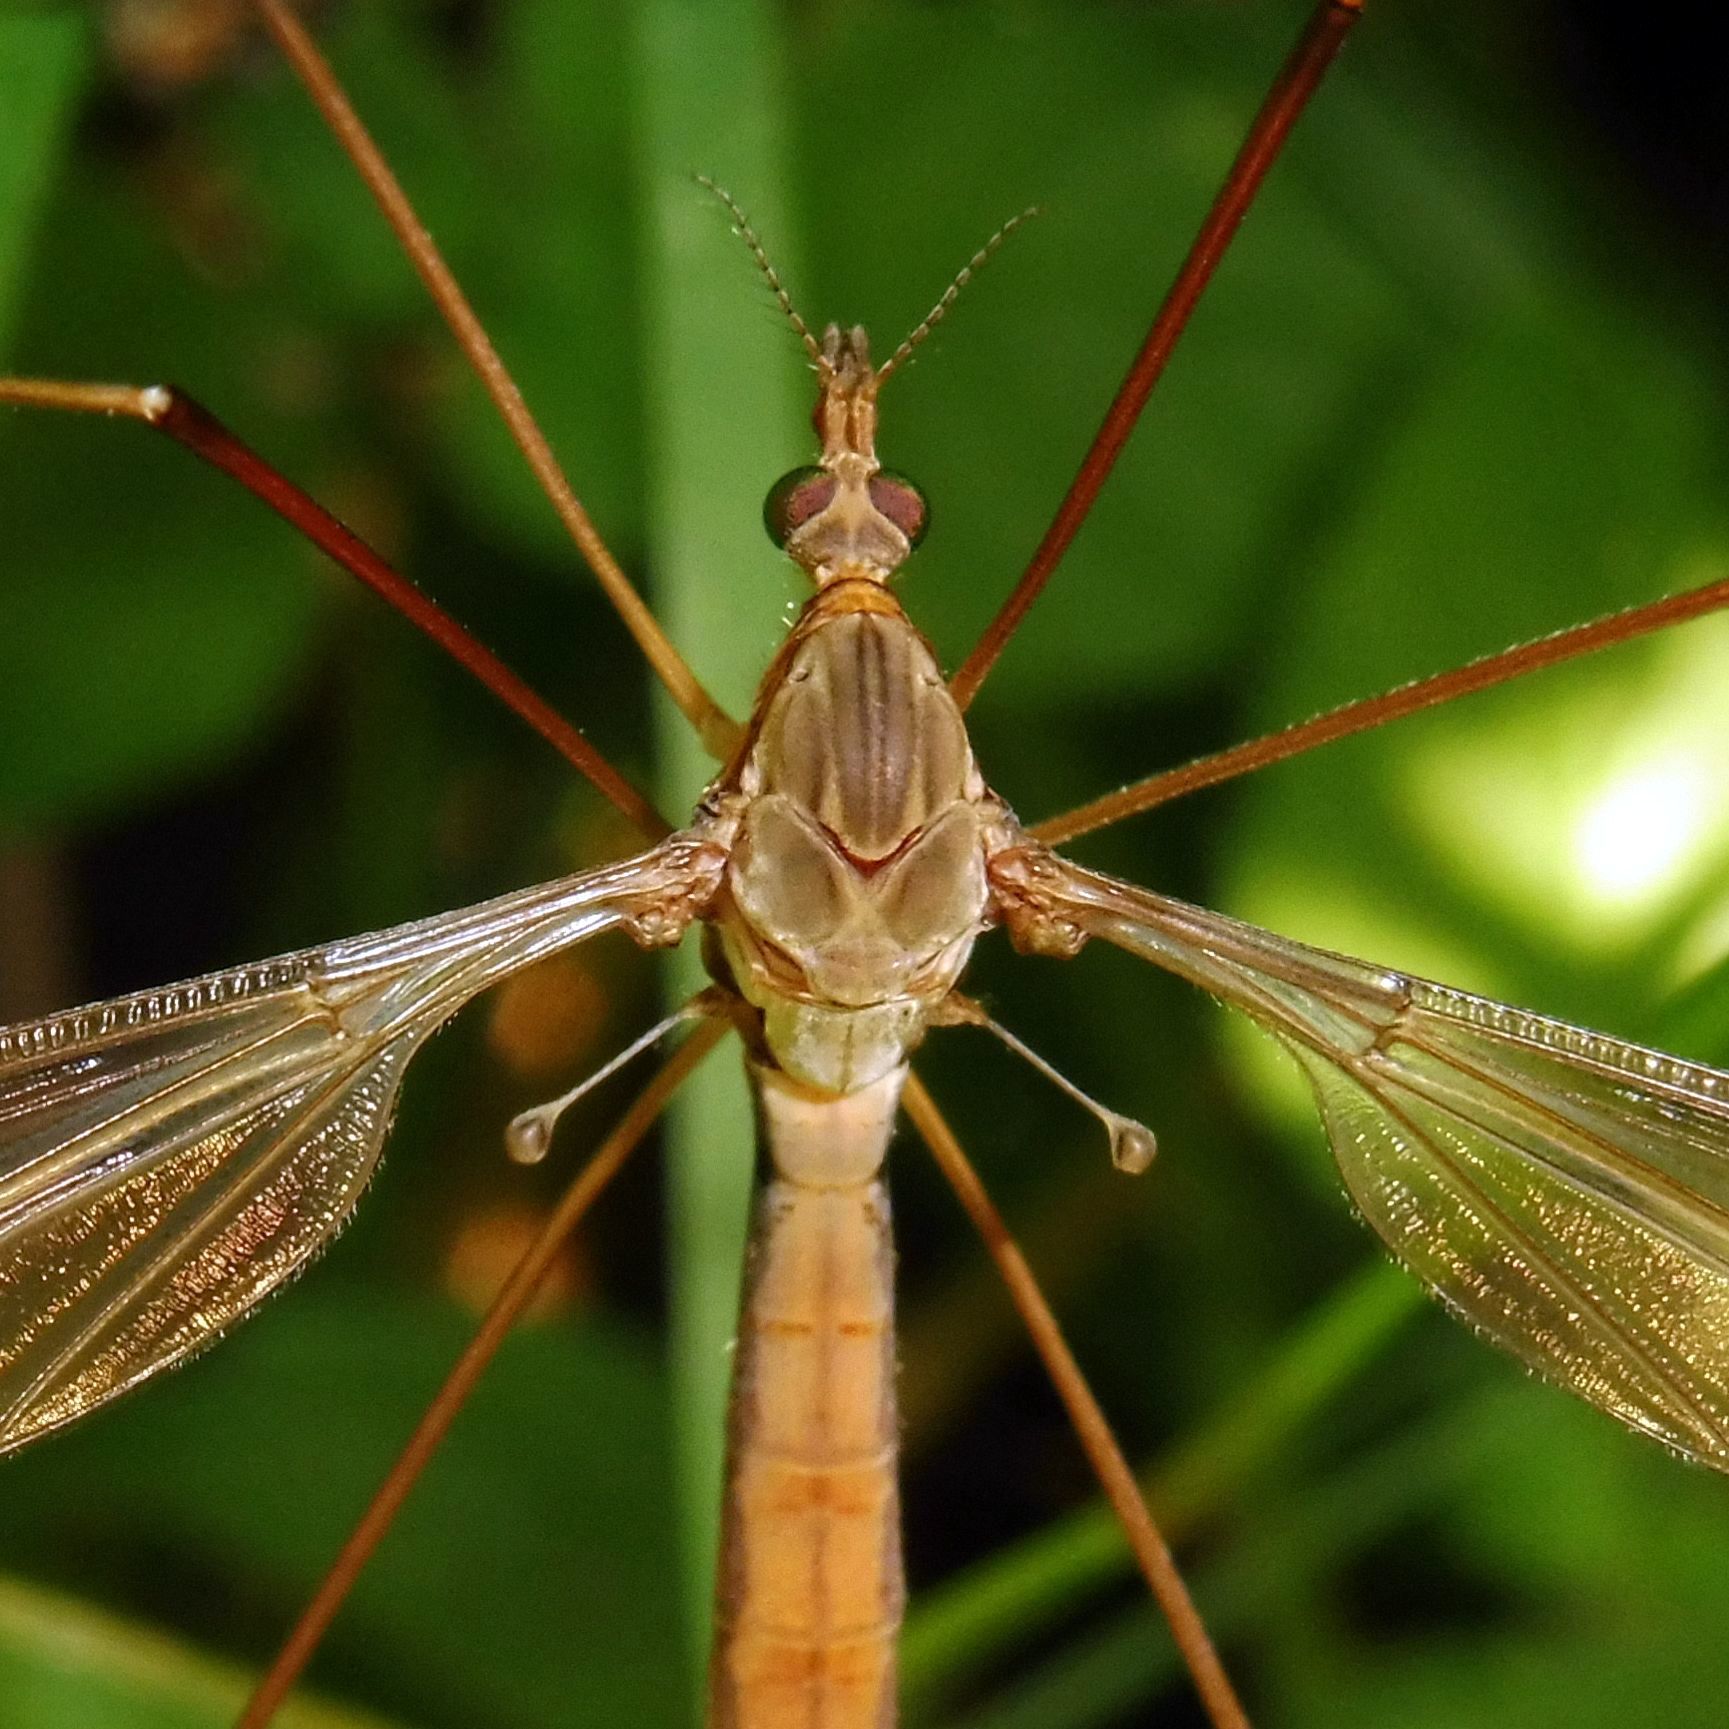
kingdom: Animalia
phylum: Arthropoda
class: Insecta
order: Diptera
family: Tipulidae
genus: Tipula
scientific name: Tipula fulvipennis
